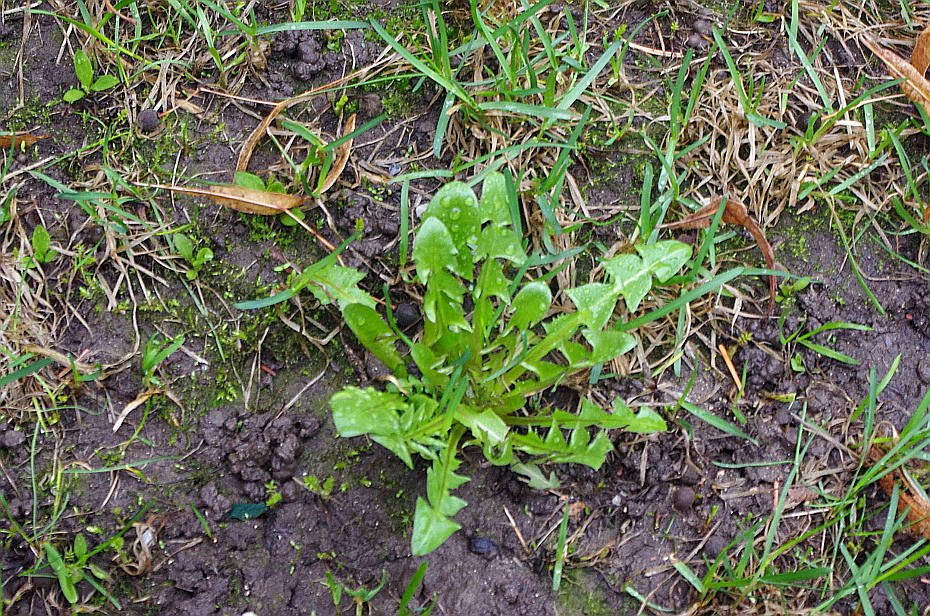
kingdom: Plantae
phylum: Tracheophyta
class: Magnoliopsida
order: Asterales
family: Asteraceae
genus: Taraxacum
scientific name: Taraxacum officinale
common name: Common dandelion
